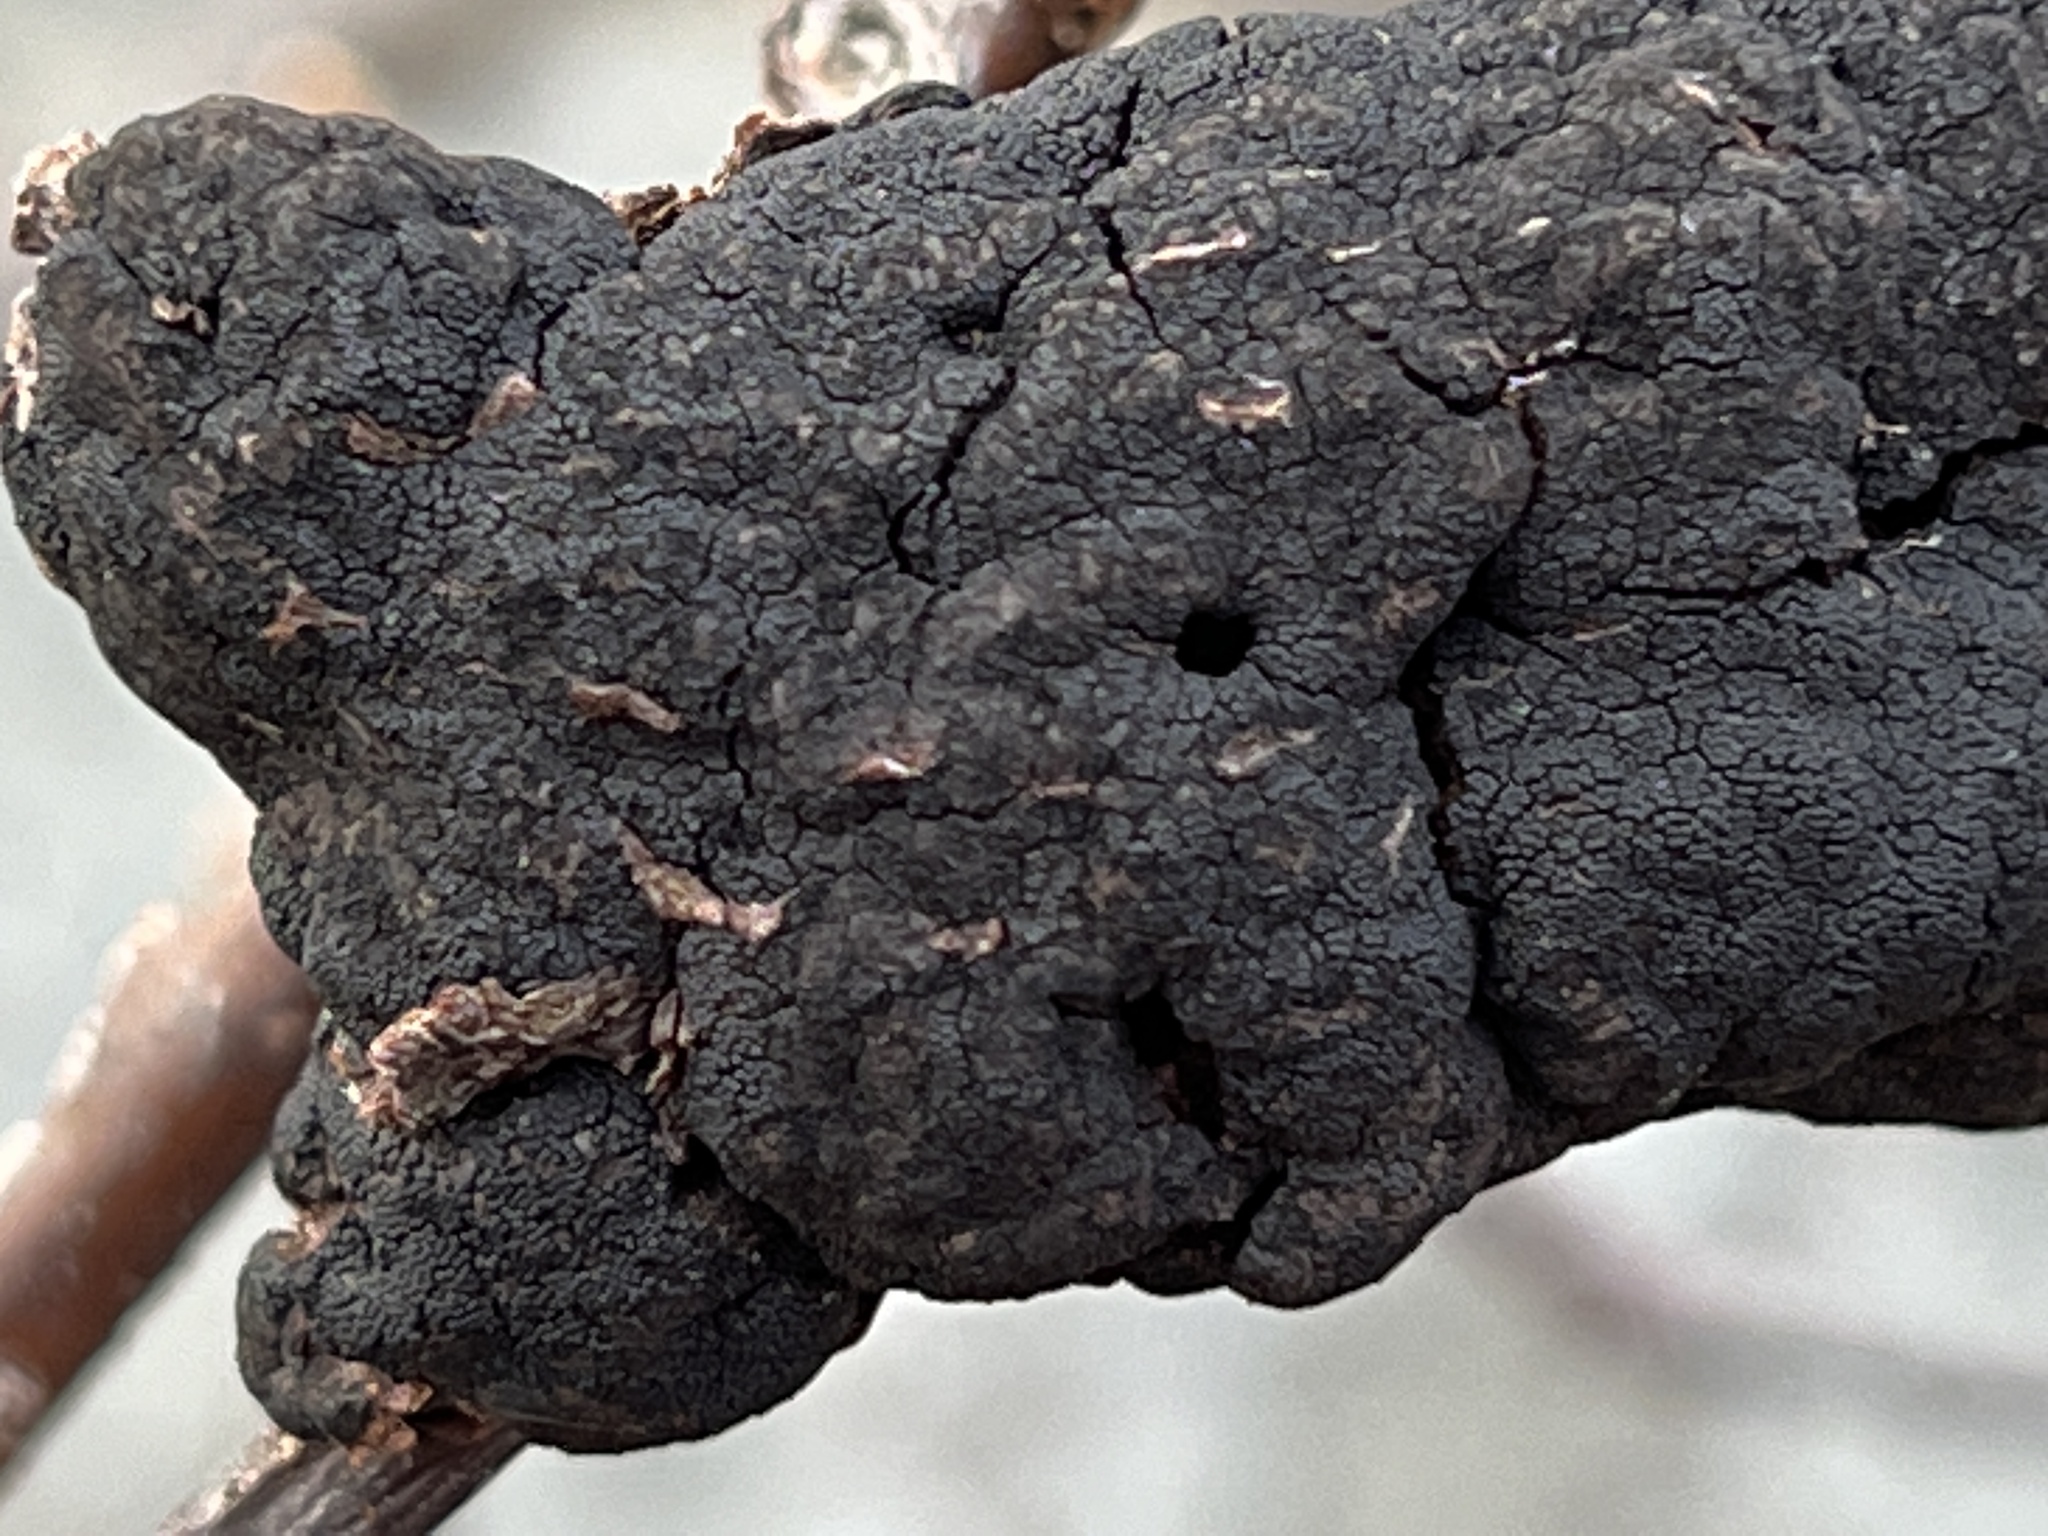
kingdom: Fungi
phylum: Ascomycota
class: Dothideomycetes
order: Venturiales
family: Venturiaceae
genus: Apiosporina
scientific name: Apiosporina morbosa
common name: Black knot
